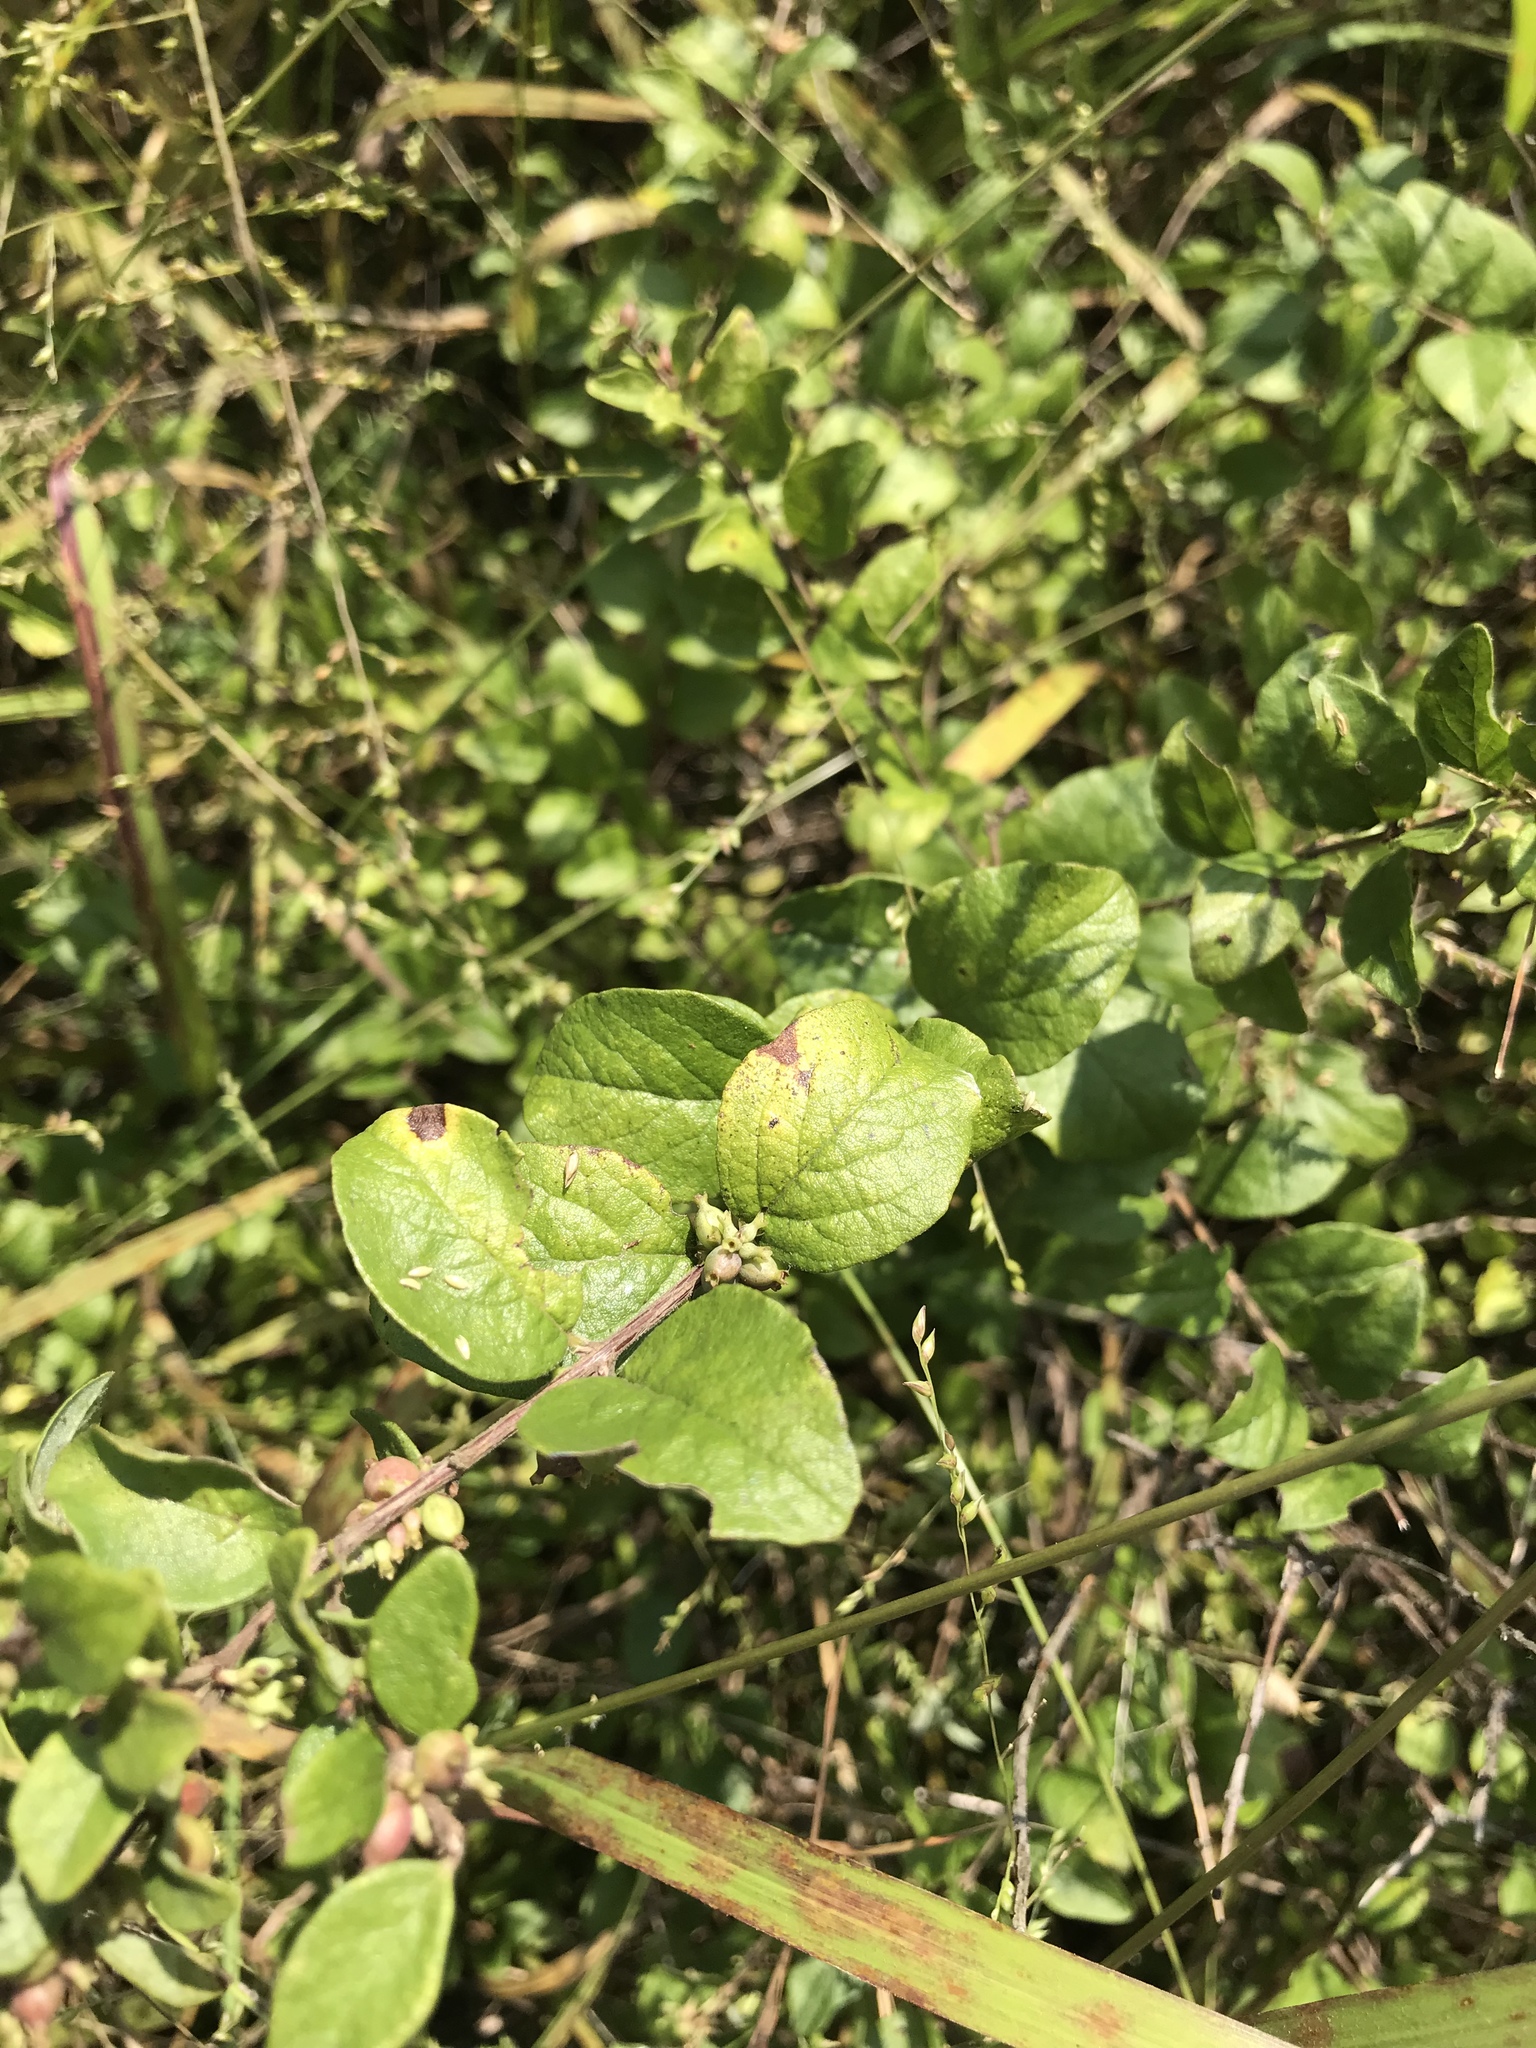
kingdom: Plantae
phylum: Tracheophyta
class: Magnoliopsida
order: Dipsacales
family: Caprifoliaceae
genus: Symphoricarpos
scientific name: Symphoricarpos orbiculatus
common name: Coralberry
